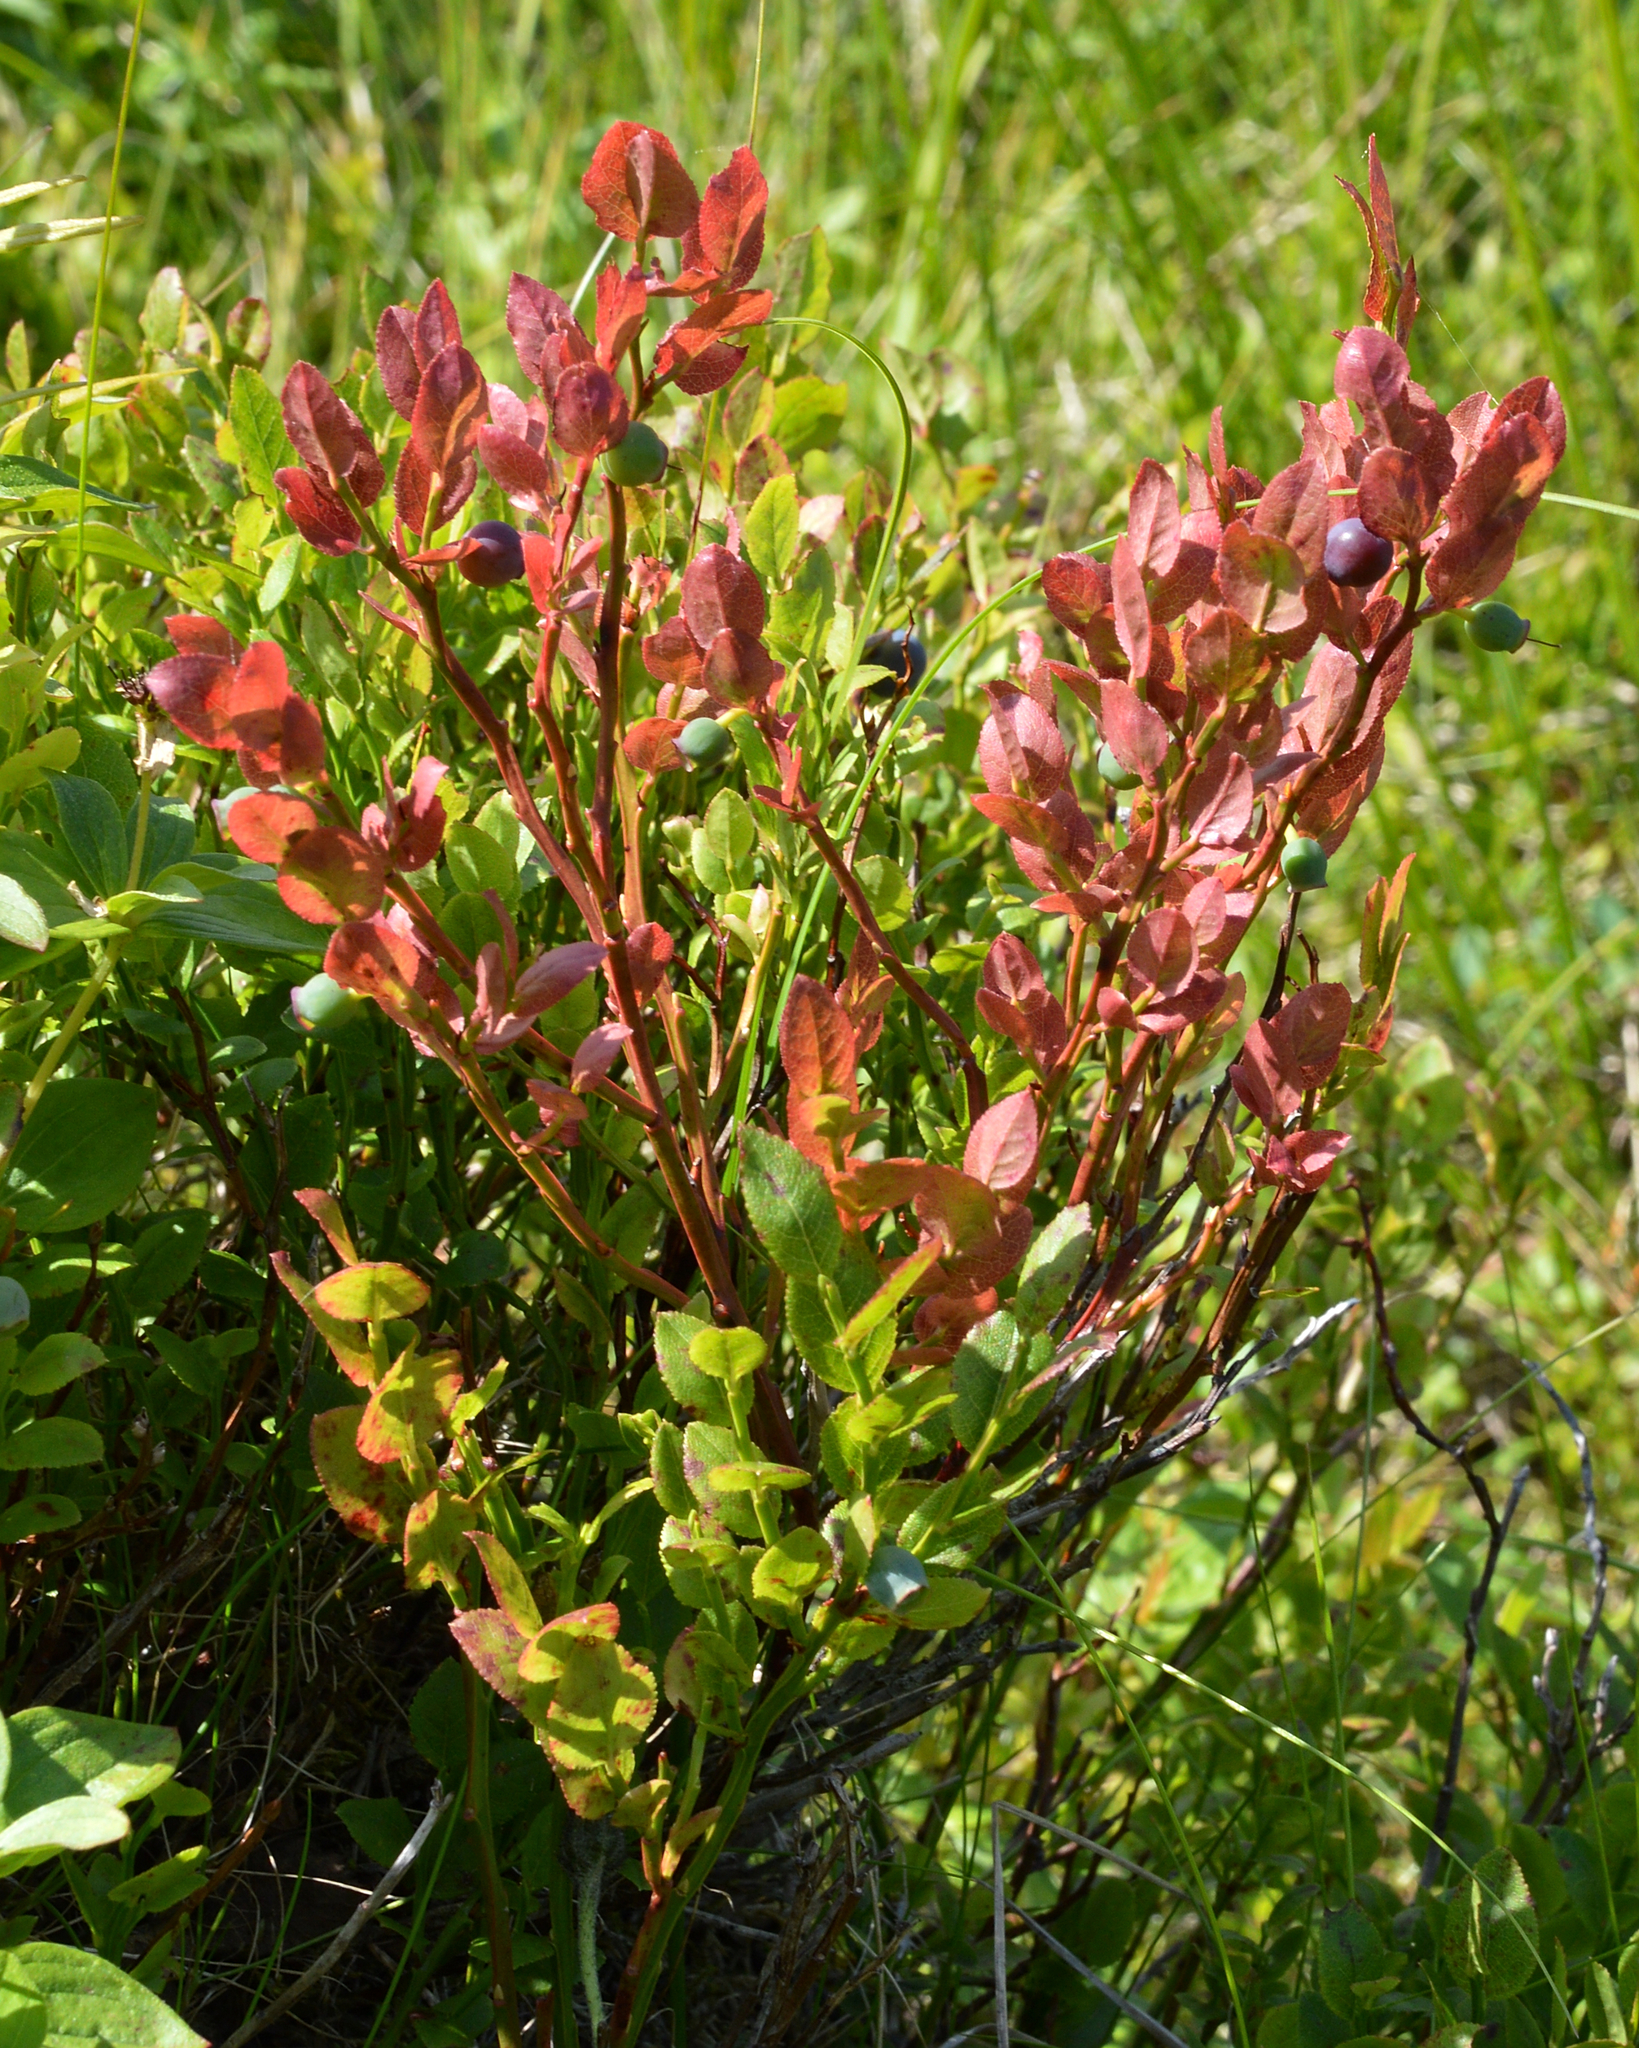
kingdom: Plantae
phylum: Tracheophyta
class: Magnoliopsida
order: Ericales
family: Ericaceae
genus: Vaccinium
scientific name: Vaccinium myrtillus
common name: Bilberry
